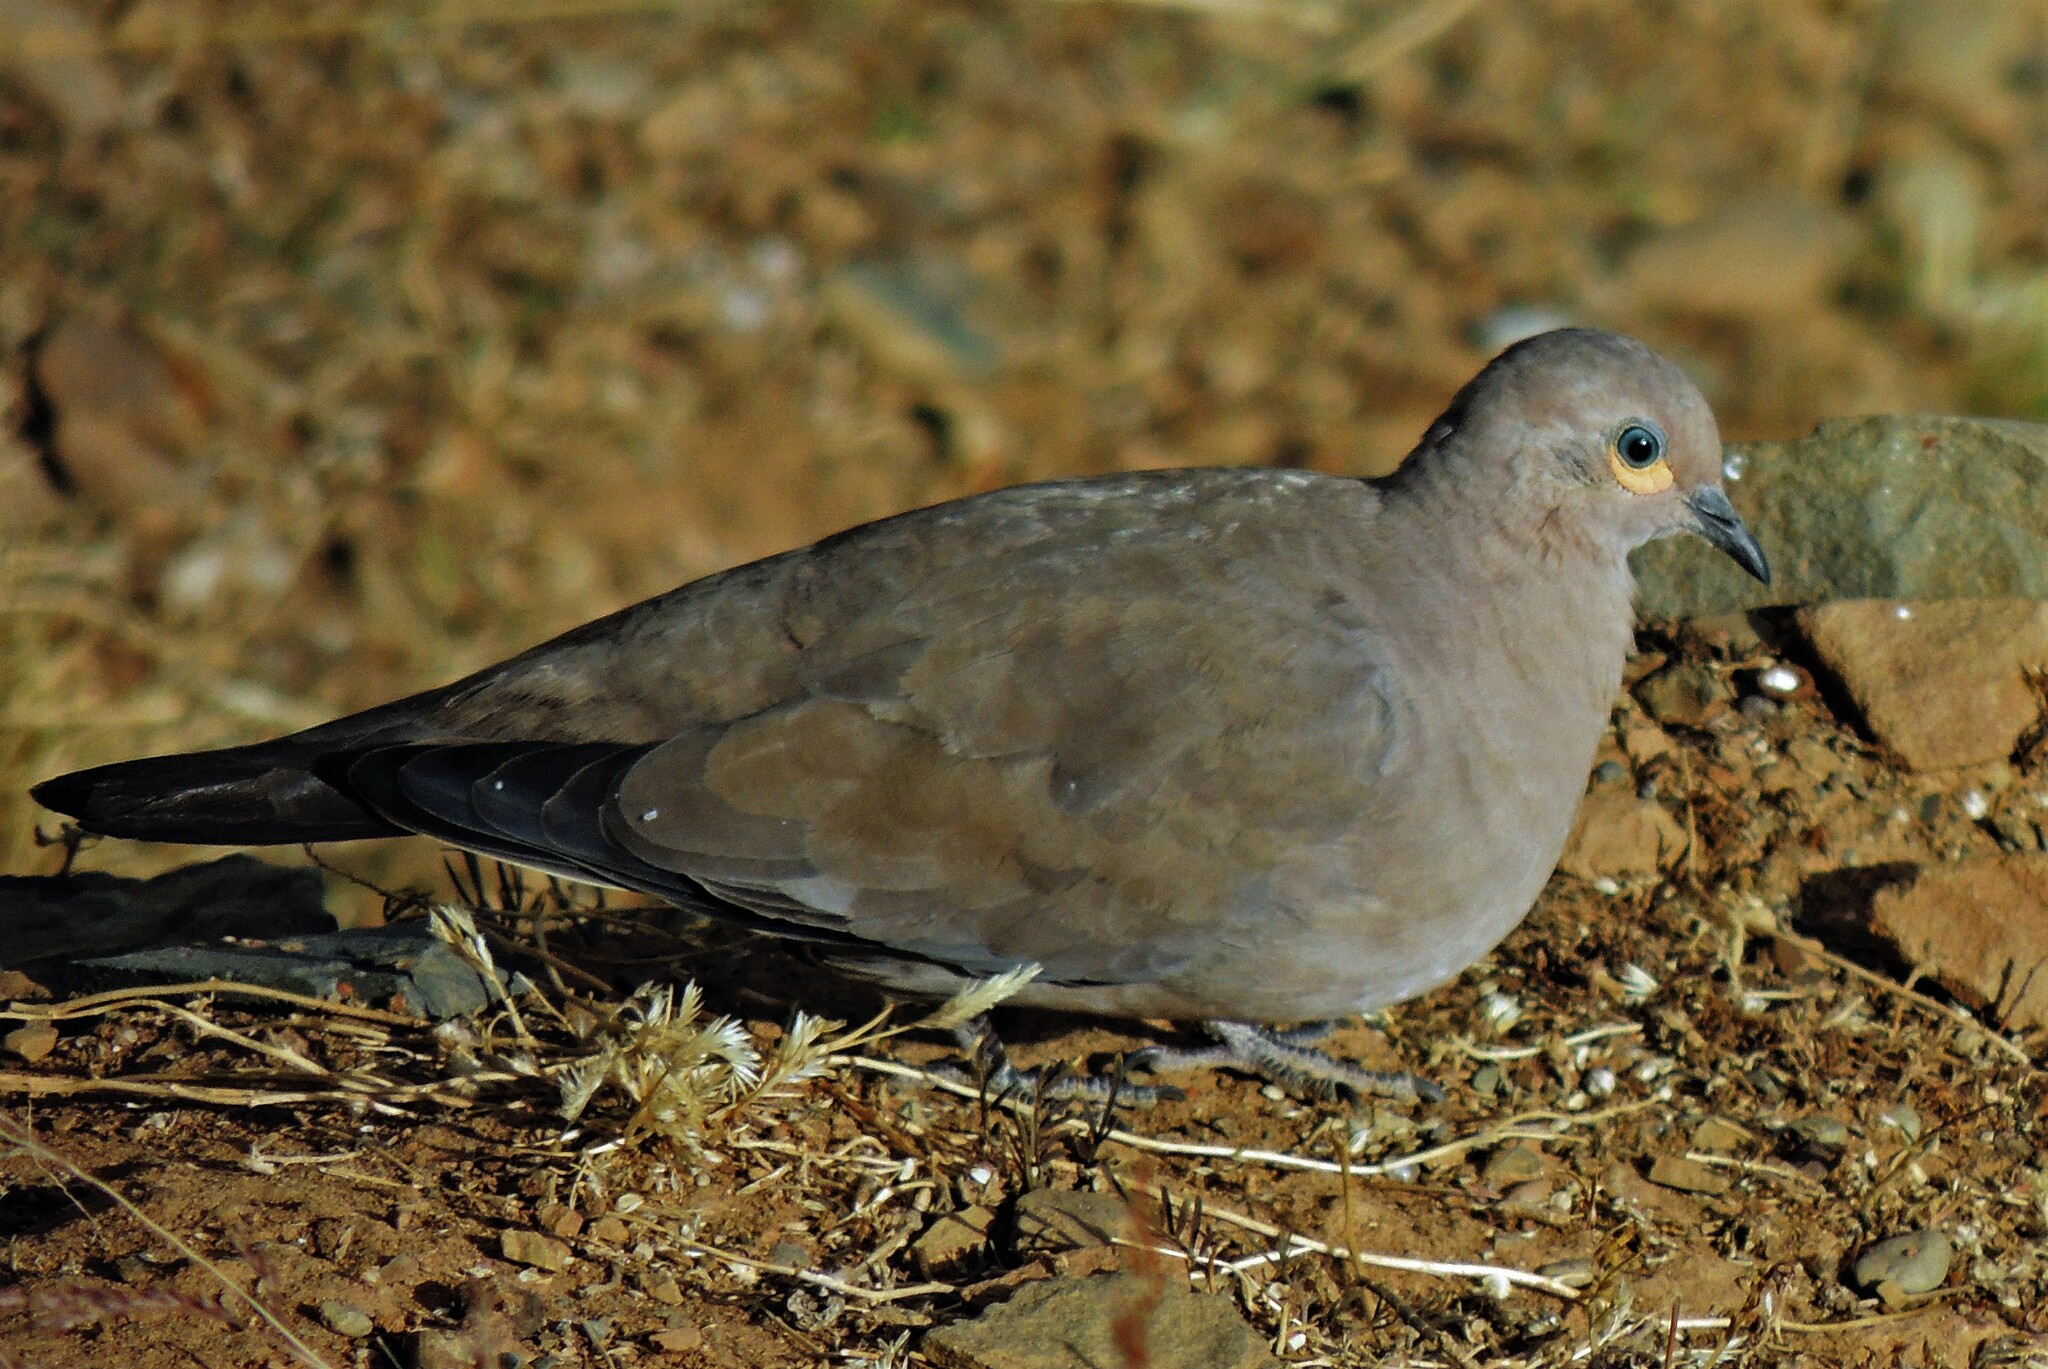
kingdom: Animalia
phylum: Chordata
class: Aves
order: Columbiformes
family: Columbidae
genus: Metriopelia
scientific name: Metriopelia melanoptera
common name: Black-winged ground dove
